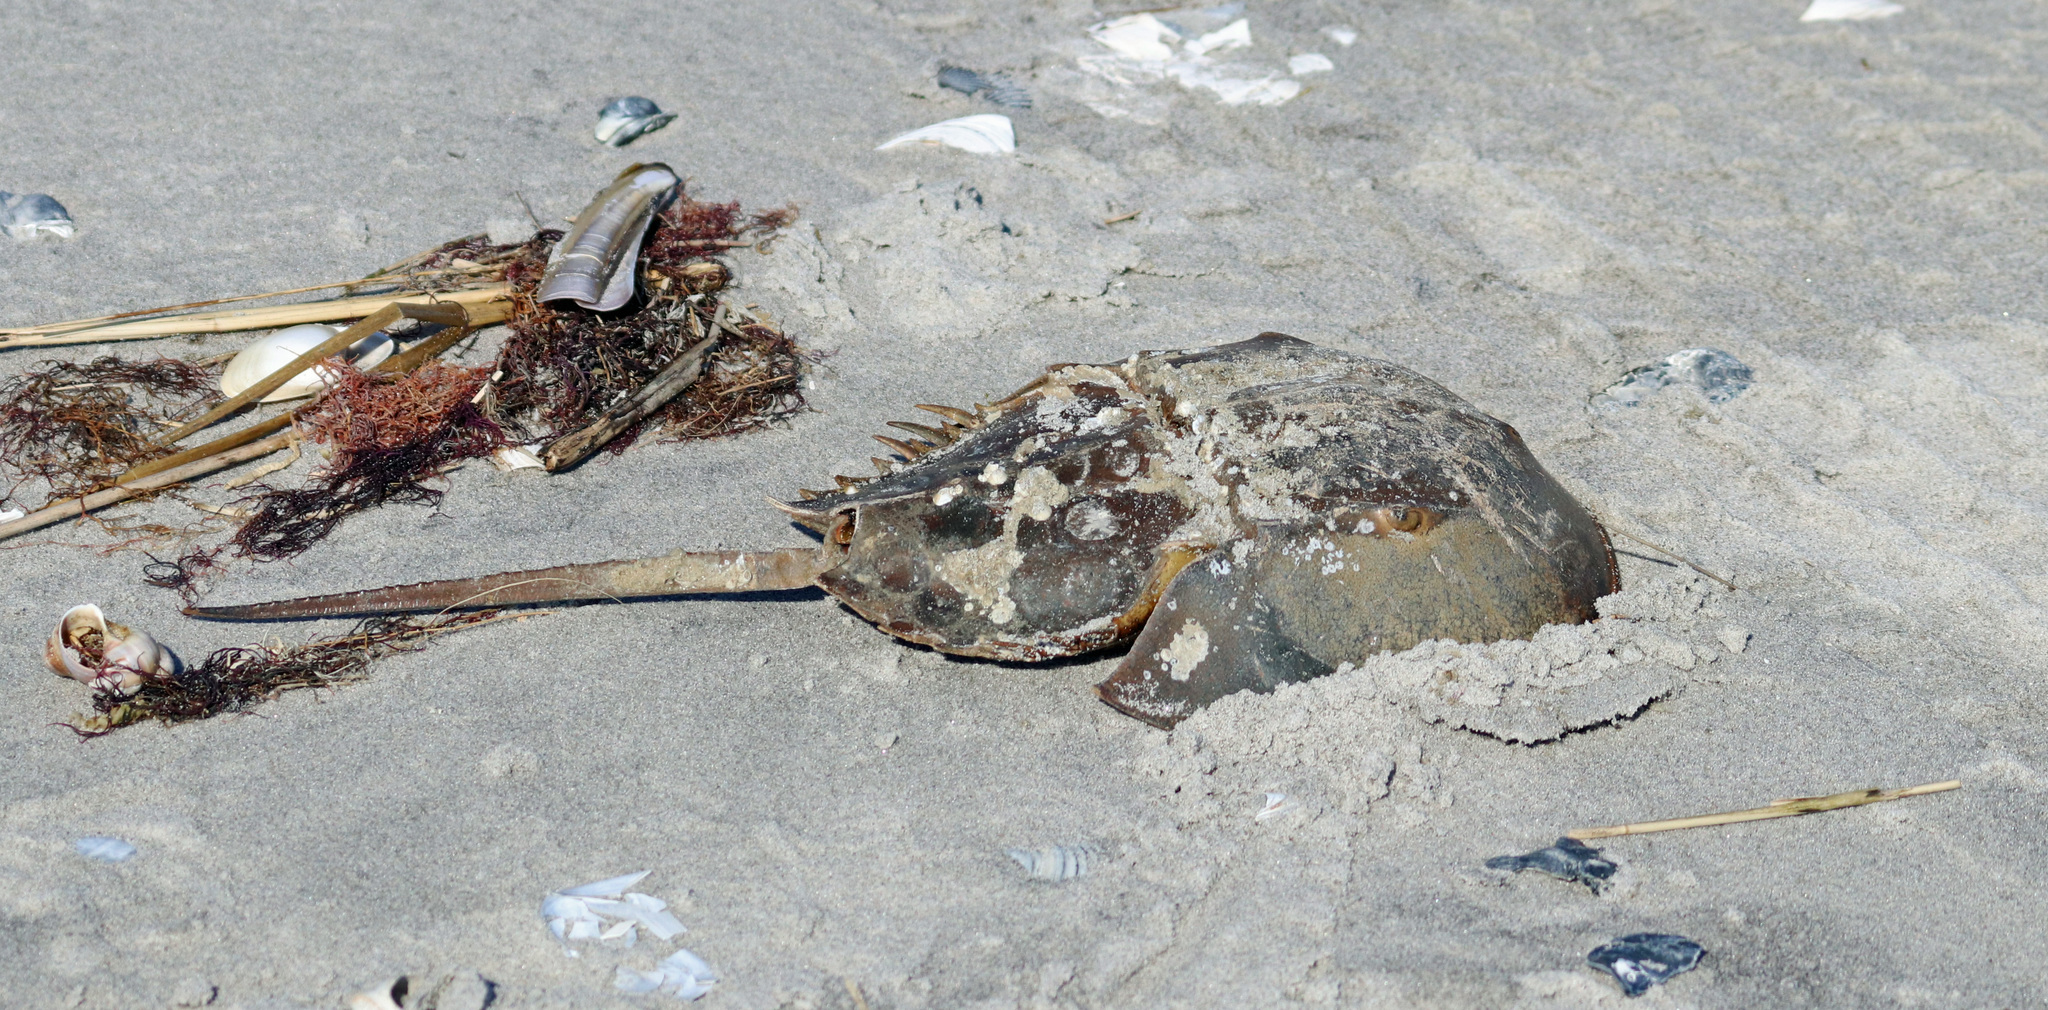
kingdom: Animalia
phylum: Arthropoda
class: Merostomata
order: Xiphosurida
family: Limulidae
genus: Limulus
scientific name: Limulus polyphemus
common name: Horseshoe crab
